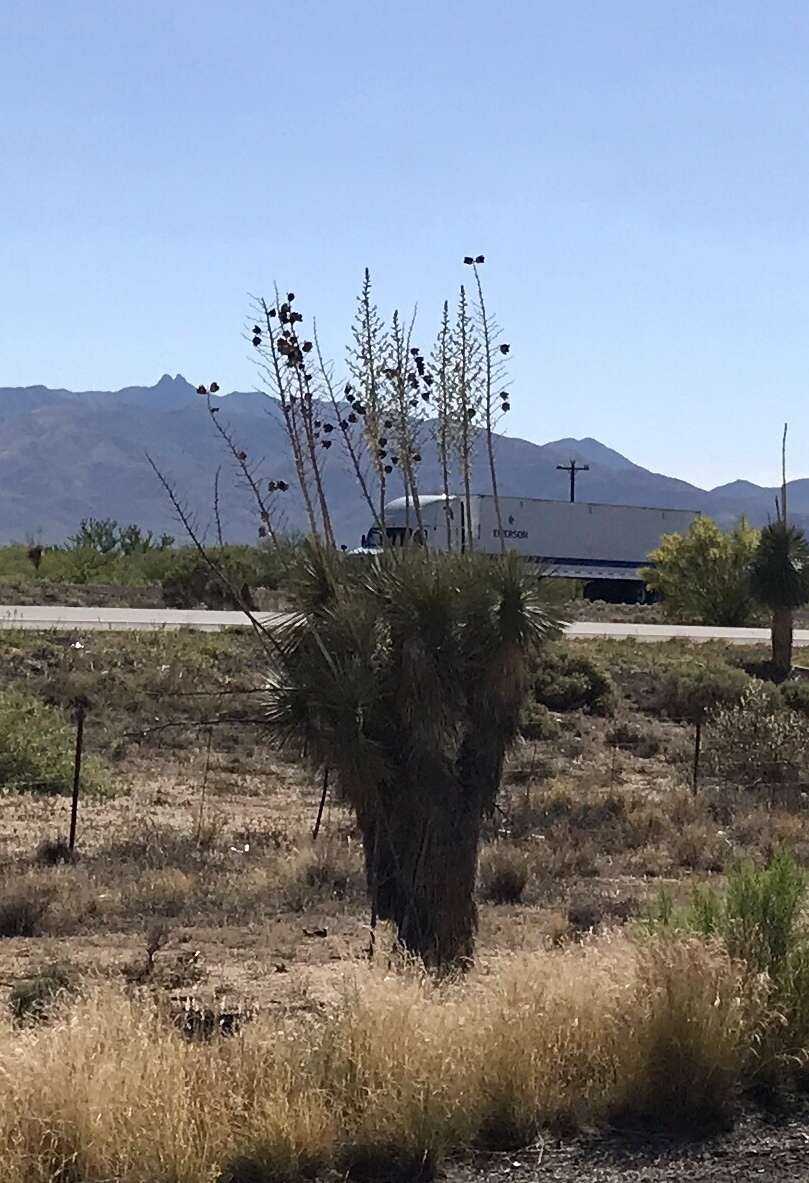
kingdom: Plantae
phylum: Tracheophyta
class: Liliopsida
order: Asparagales
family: Asparagaceae
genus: Yucca
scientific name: Yucca elata
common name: Palmella
